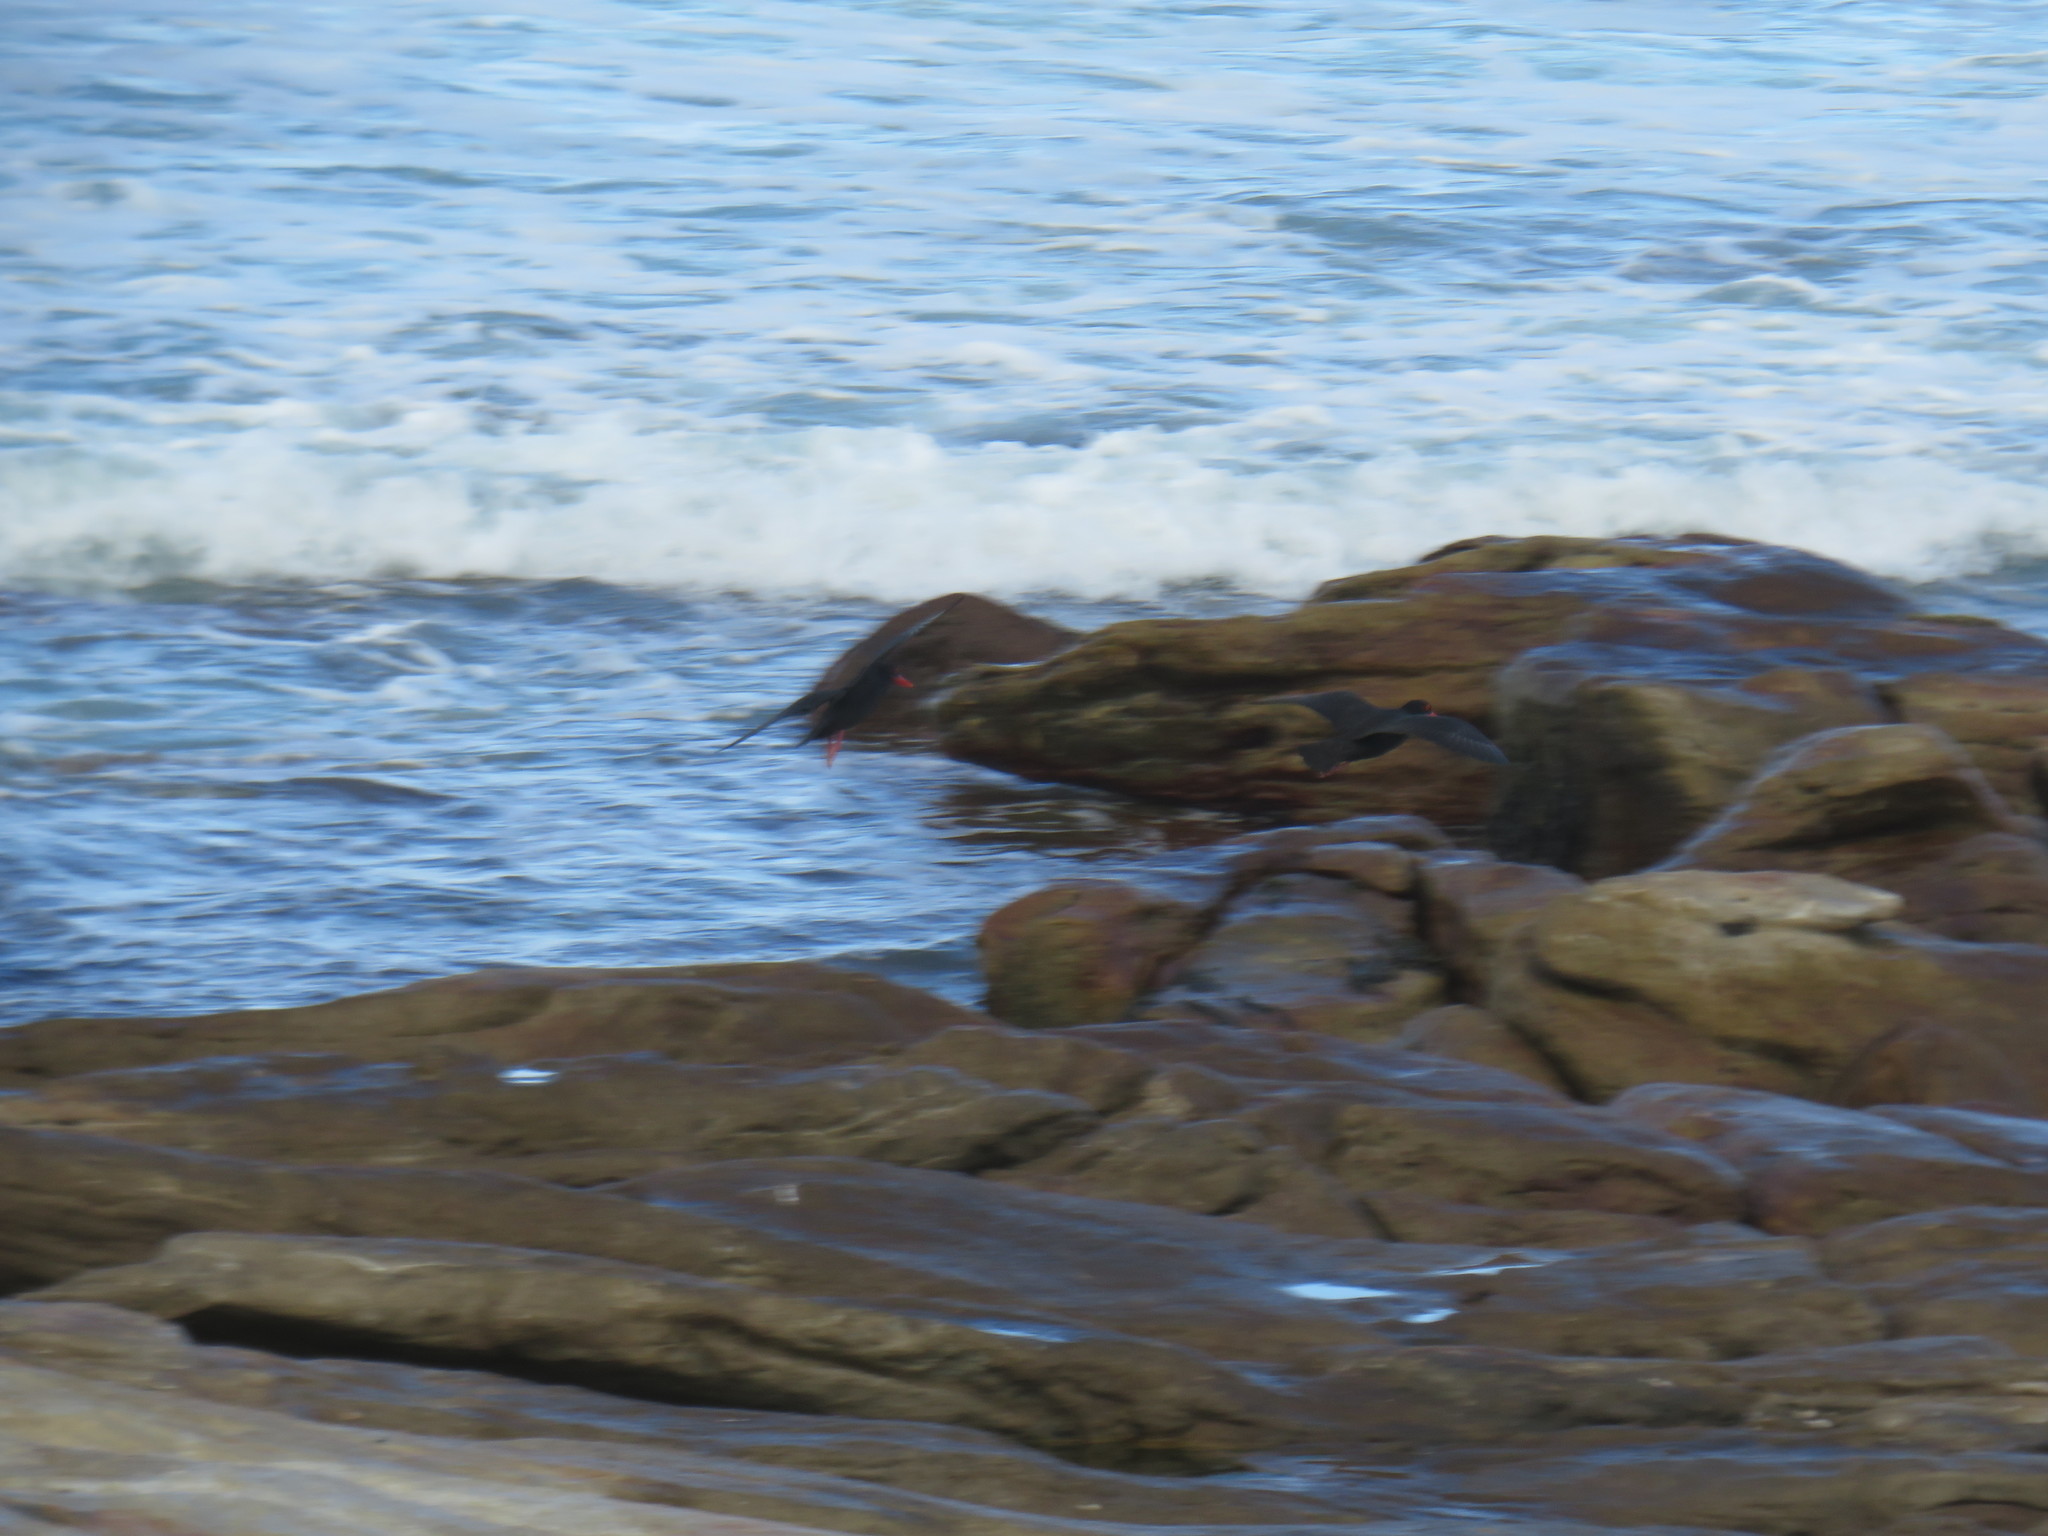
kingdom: Animalia
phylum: Chordata
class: Aves
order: Charadriiformes
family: Haematopodidae
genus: Haematopus
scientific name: Haematopus moquini
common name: African oystercatcher
